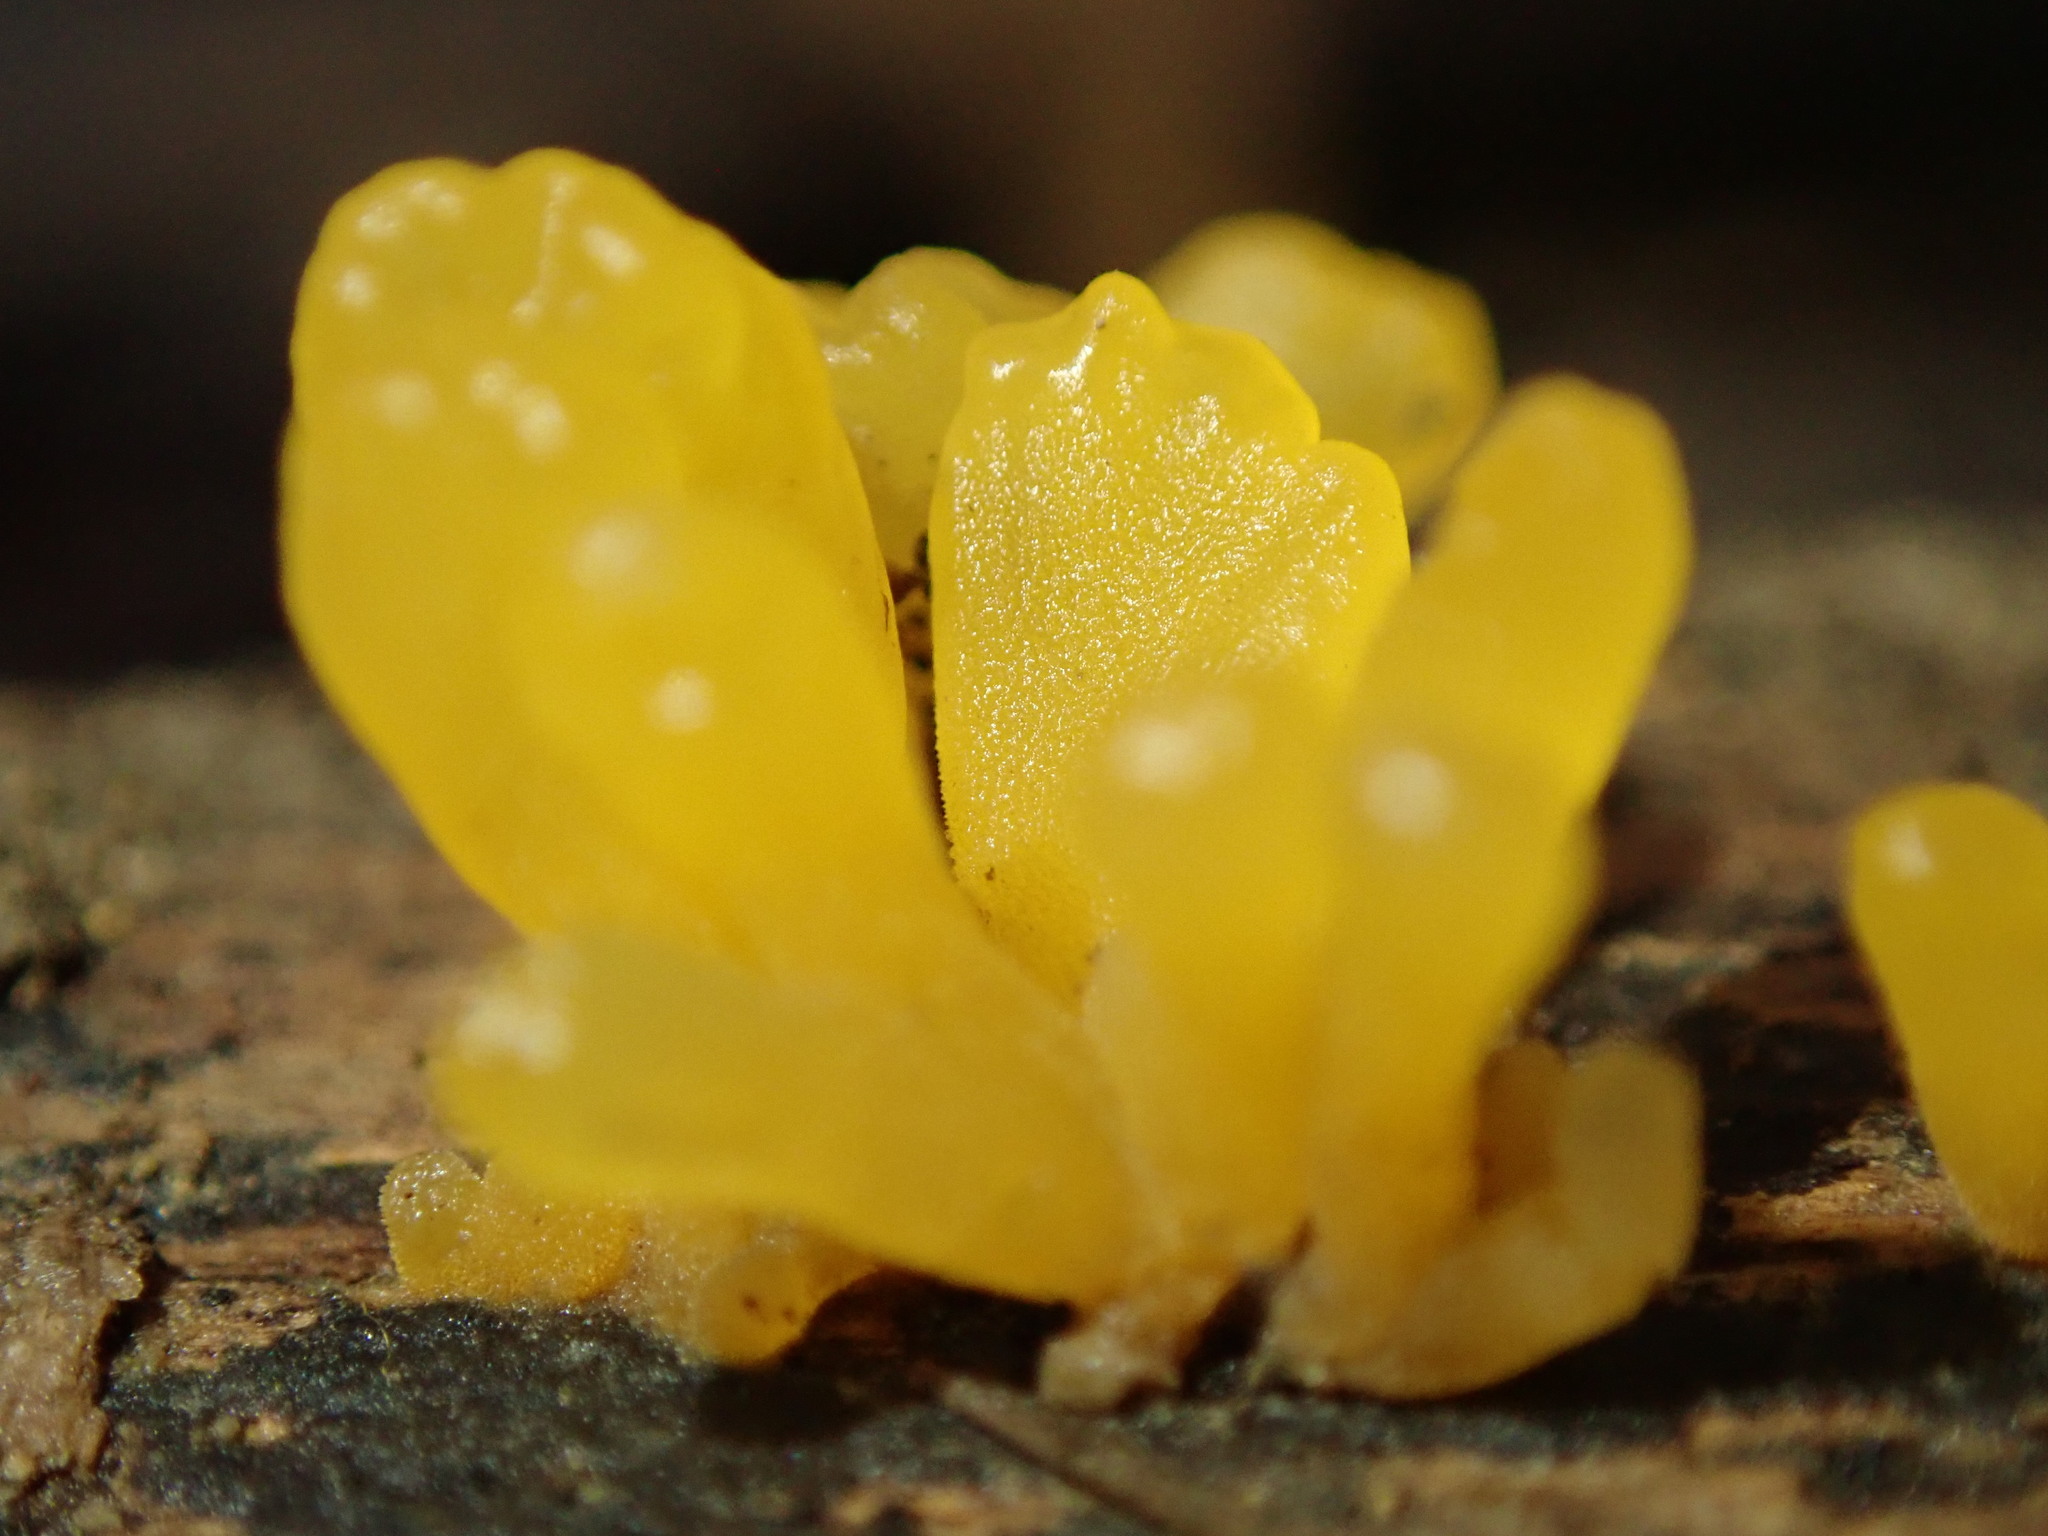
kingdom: Fungi
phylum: Basidiomycota
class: Dacrymycetes
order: Dacrymycetales
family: Dacrymycetaceae
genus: Dacrymyces
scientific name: Dacrymyces spathularius
